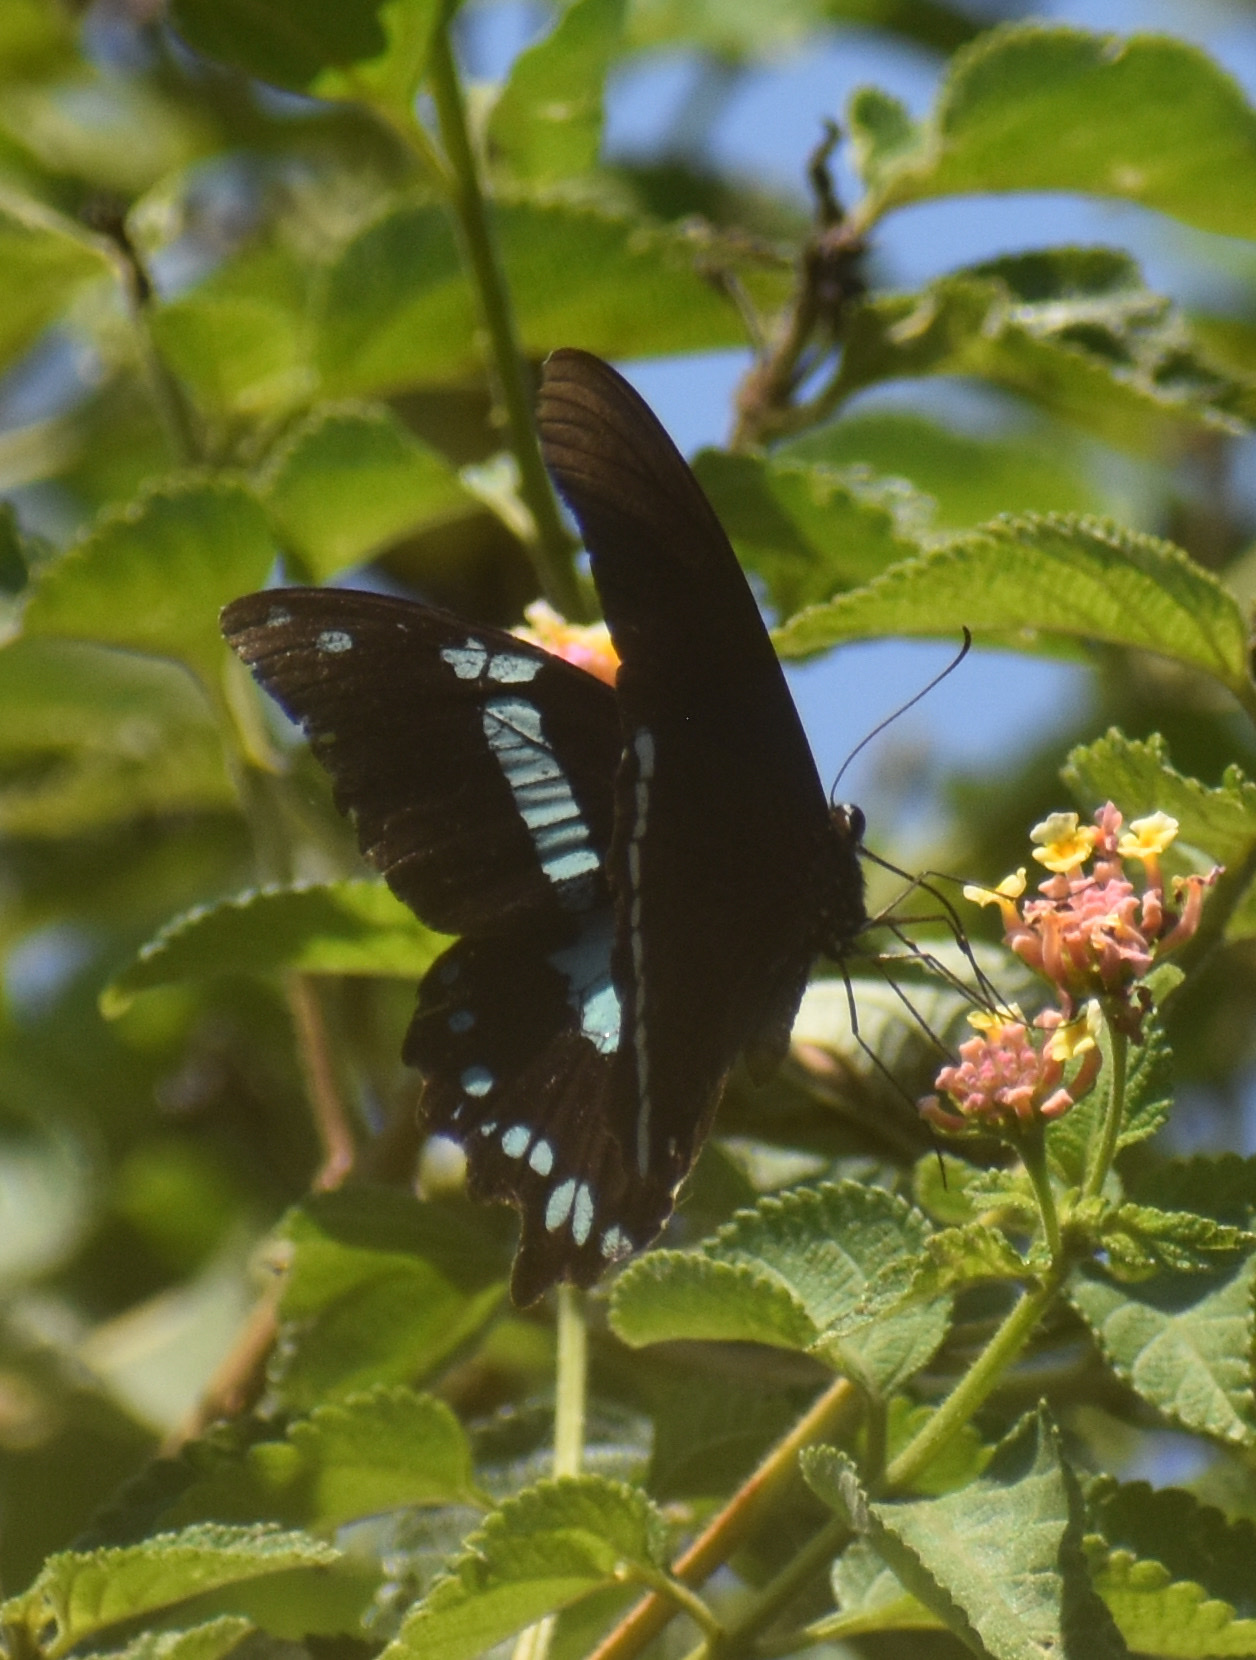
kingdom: Animalia
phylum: Arthropoda
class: Insecta
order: Lepidoptera
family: Papilionidae
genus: Papilio
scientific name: Papilio nireus
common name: Greenbanded swallowtail
